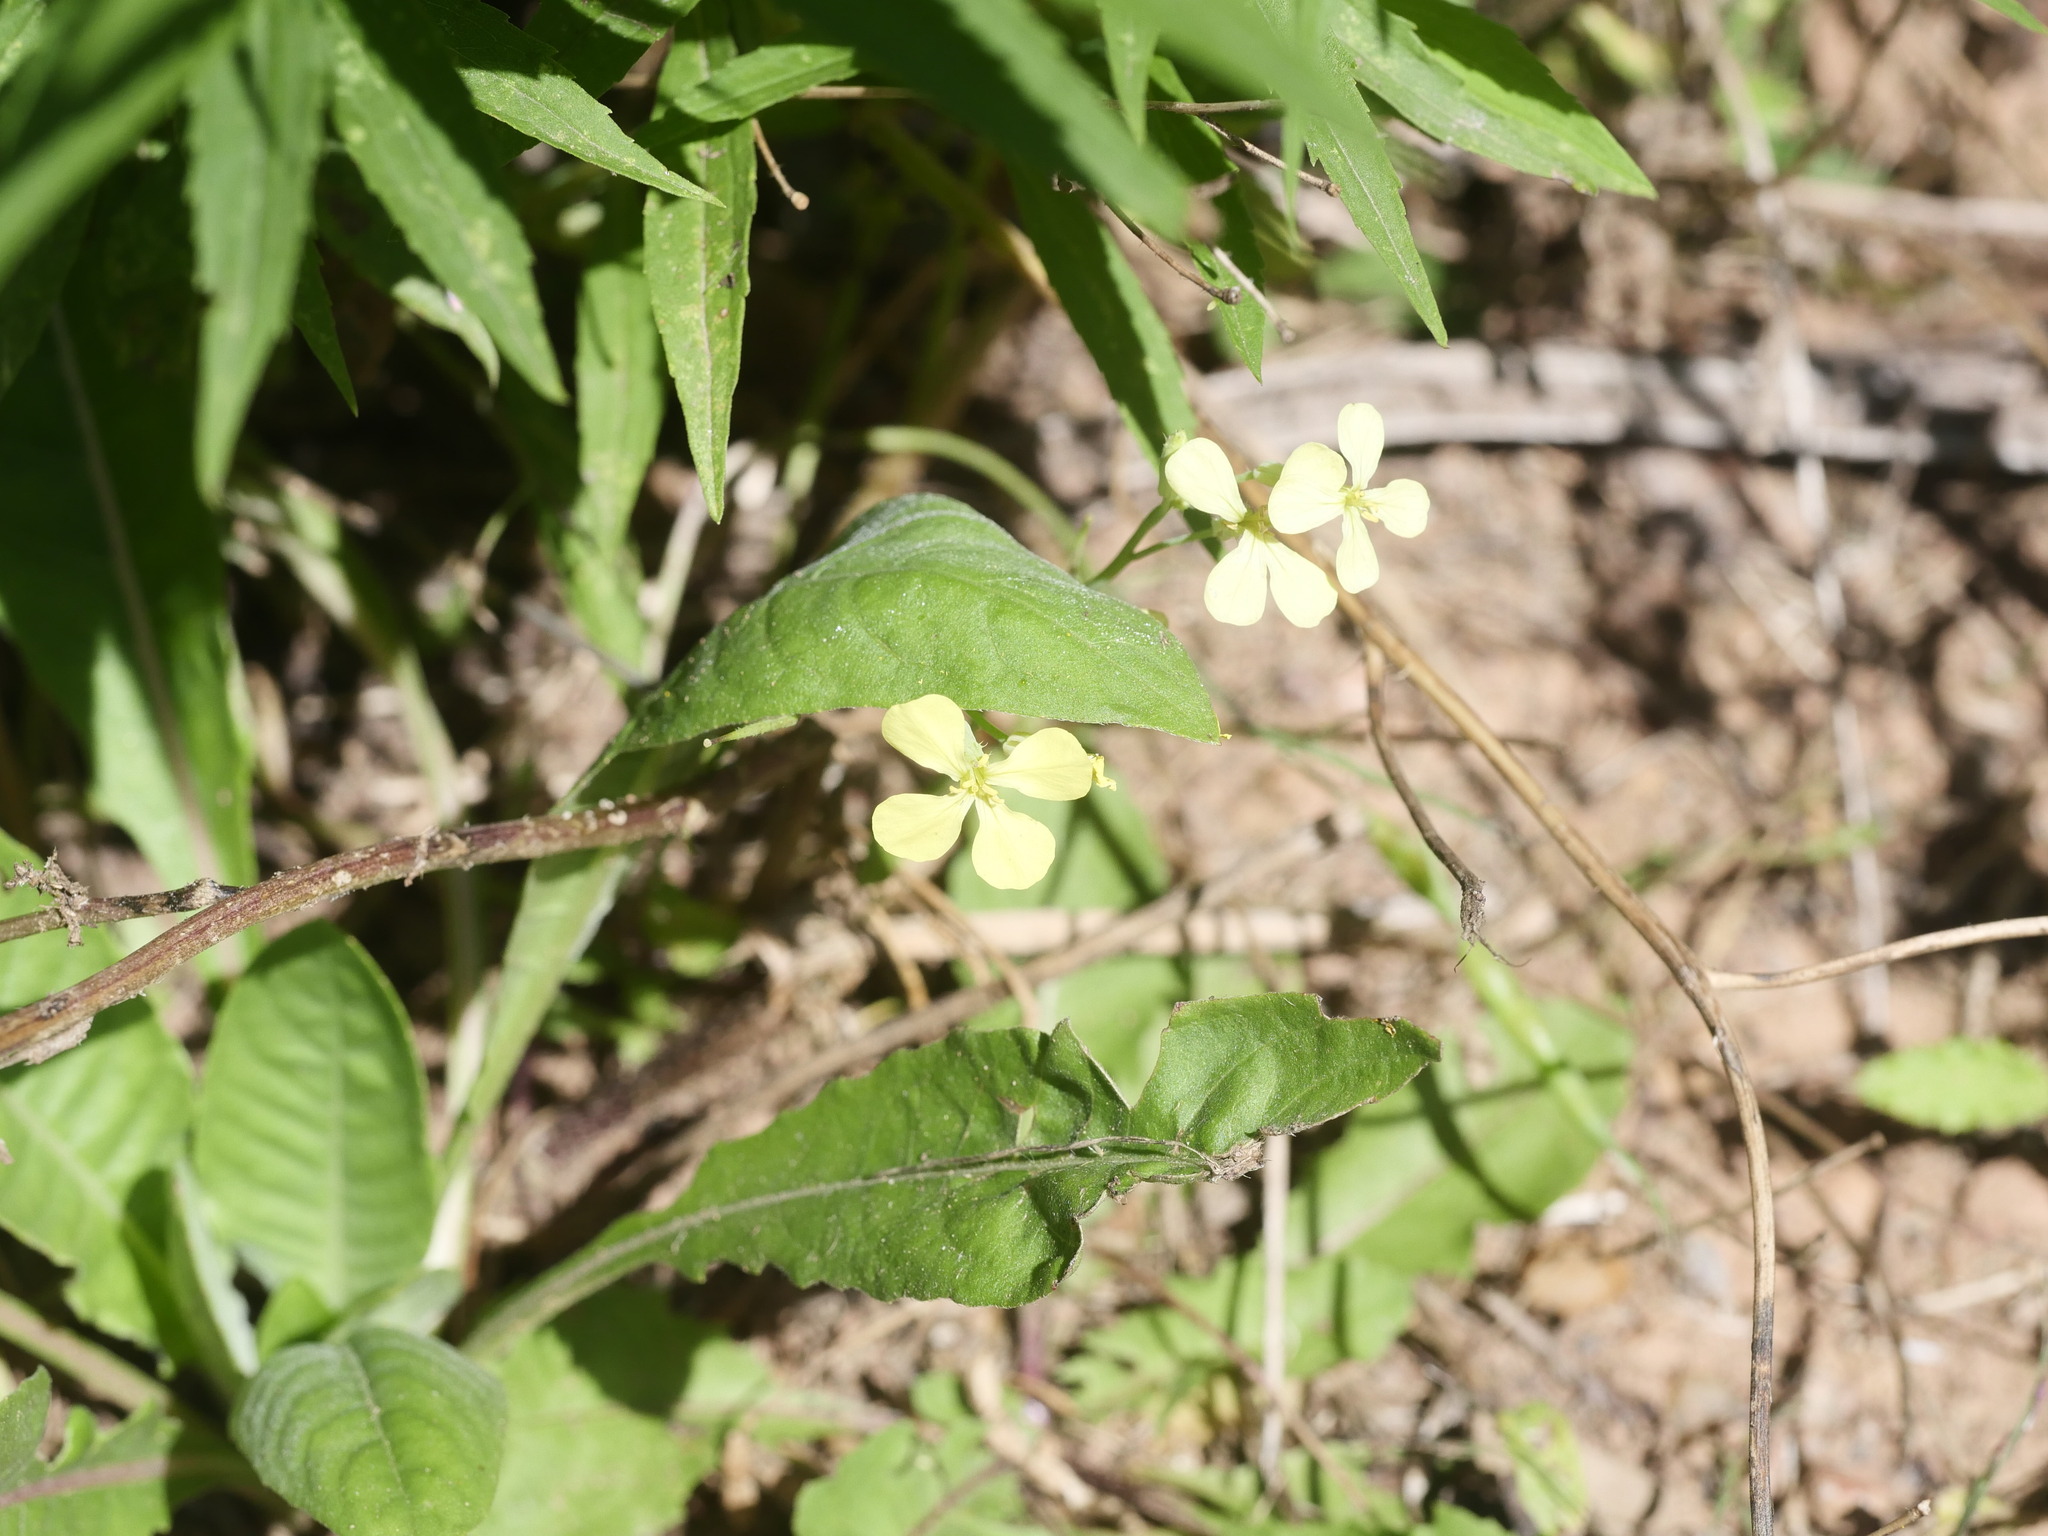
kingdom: Plantae
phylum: Tracheophyta
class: Magnoliopsida
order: Brassicales
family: Brassicaceae
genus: Raphanus
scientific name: Raphanus raphanistrum
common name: Wild radish
